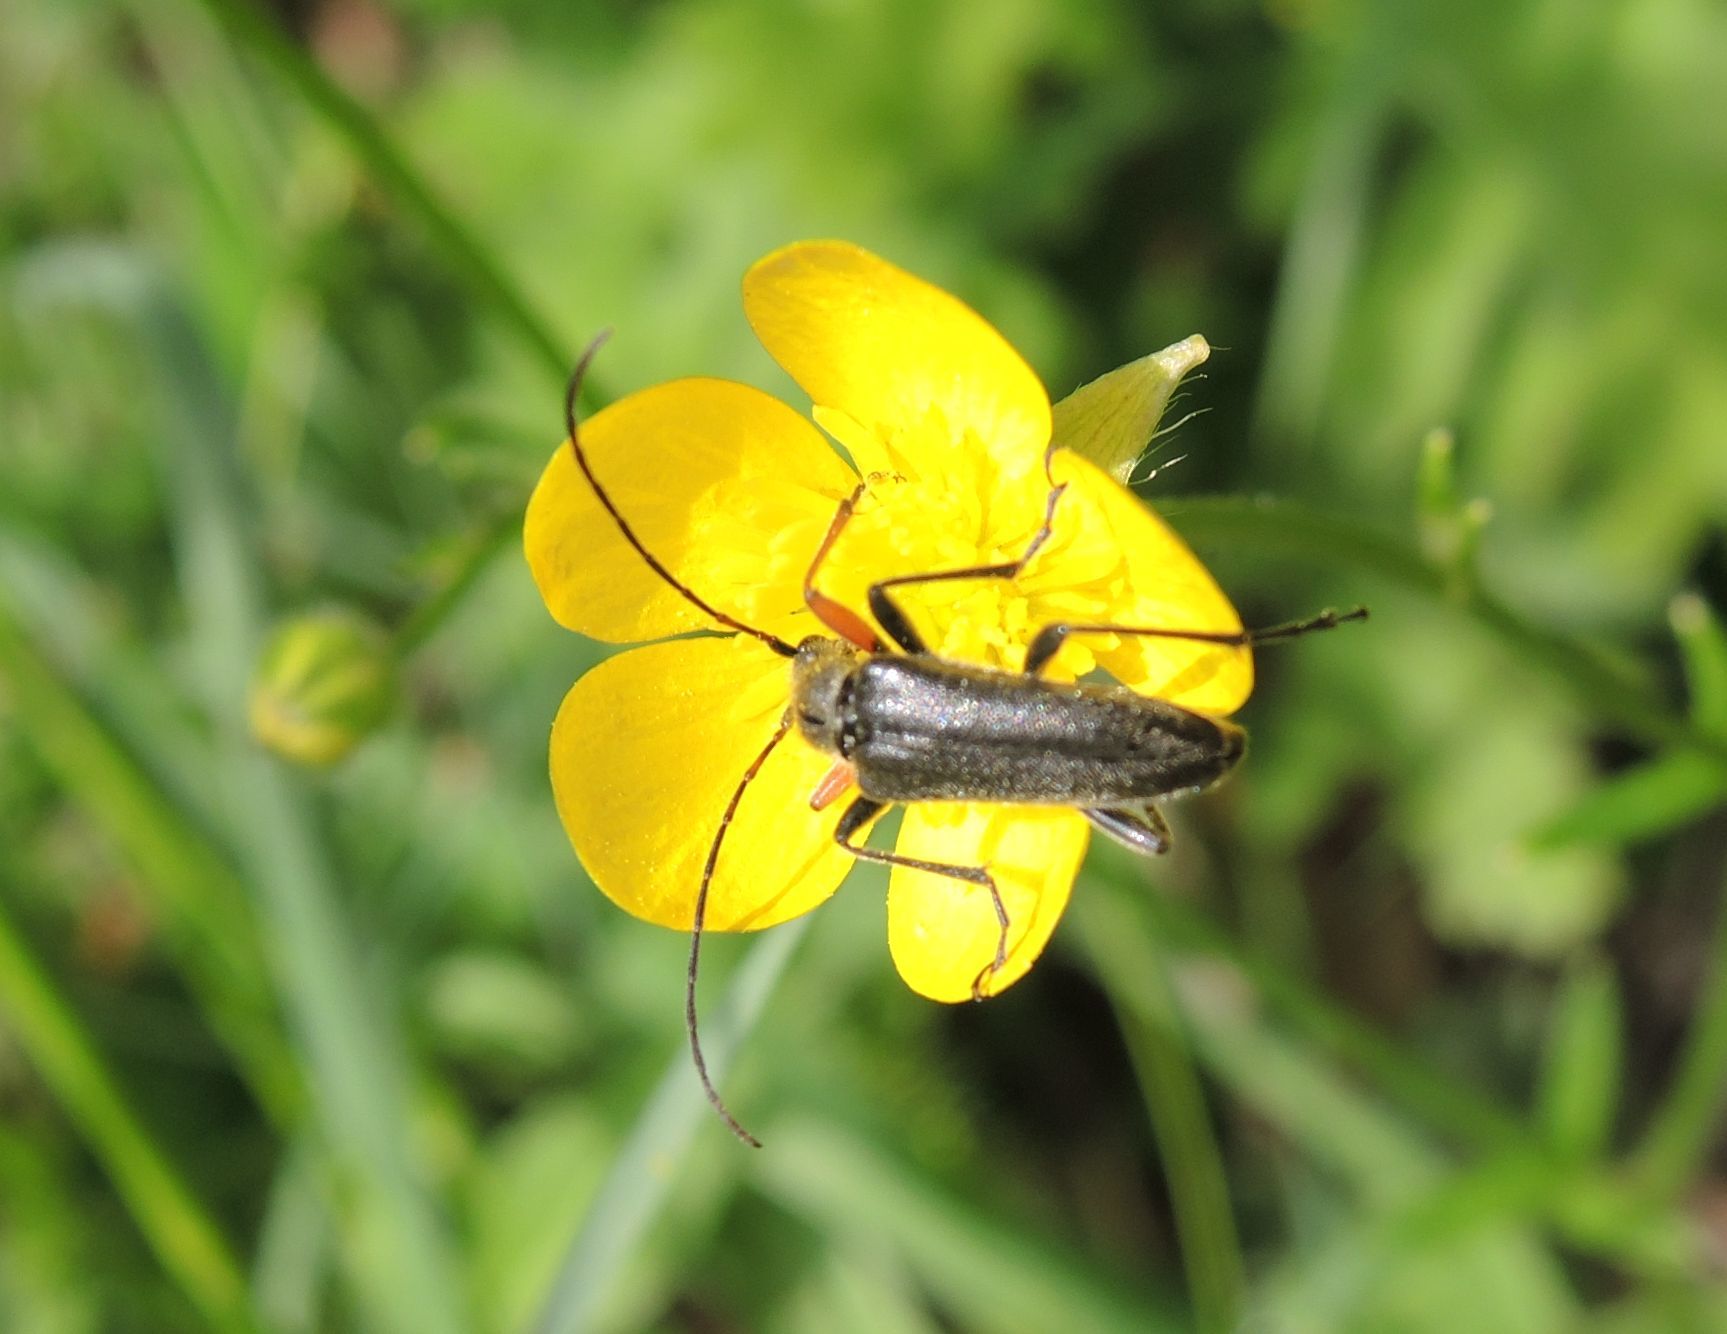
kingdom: Animalia
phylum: Arthropoda
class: Insecta
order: Coleoptera
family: Cerambycidae
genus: Cortodera
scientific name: Cortodera flavimana
